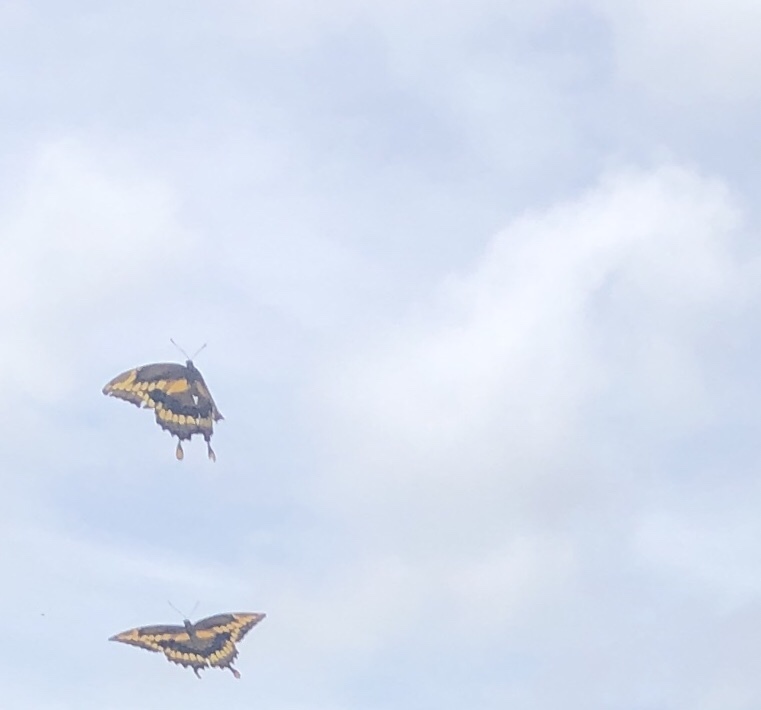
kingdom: Animalia
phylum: Arthropoda
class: Insecta
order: Lepidoptera
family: Papilionidae
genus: Papilio
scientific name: Papilio cresphontes
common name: Giant swallowtail
